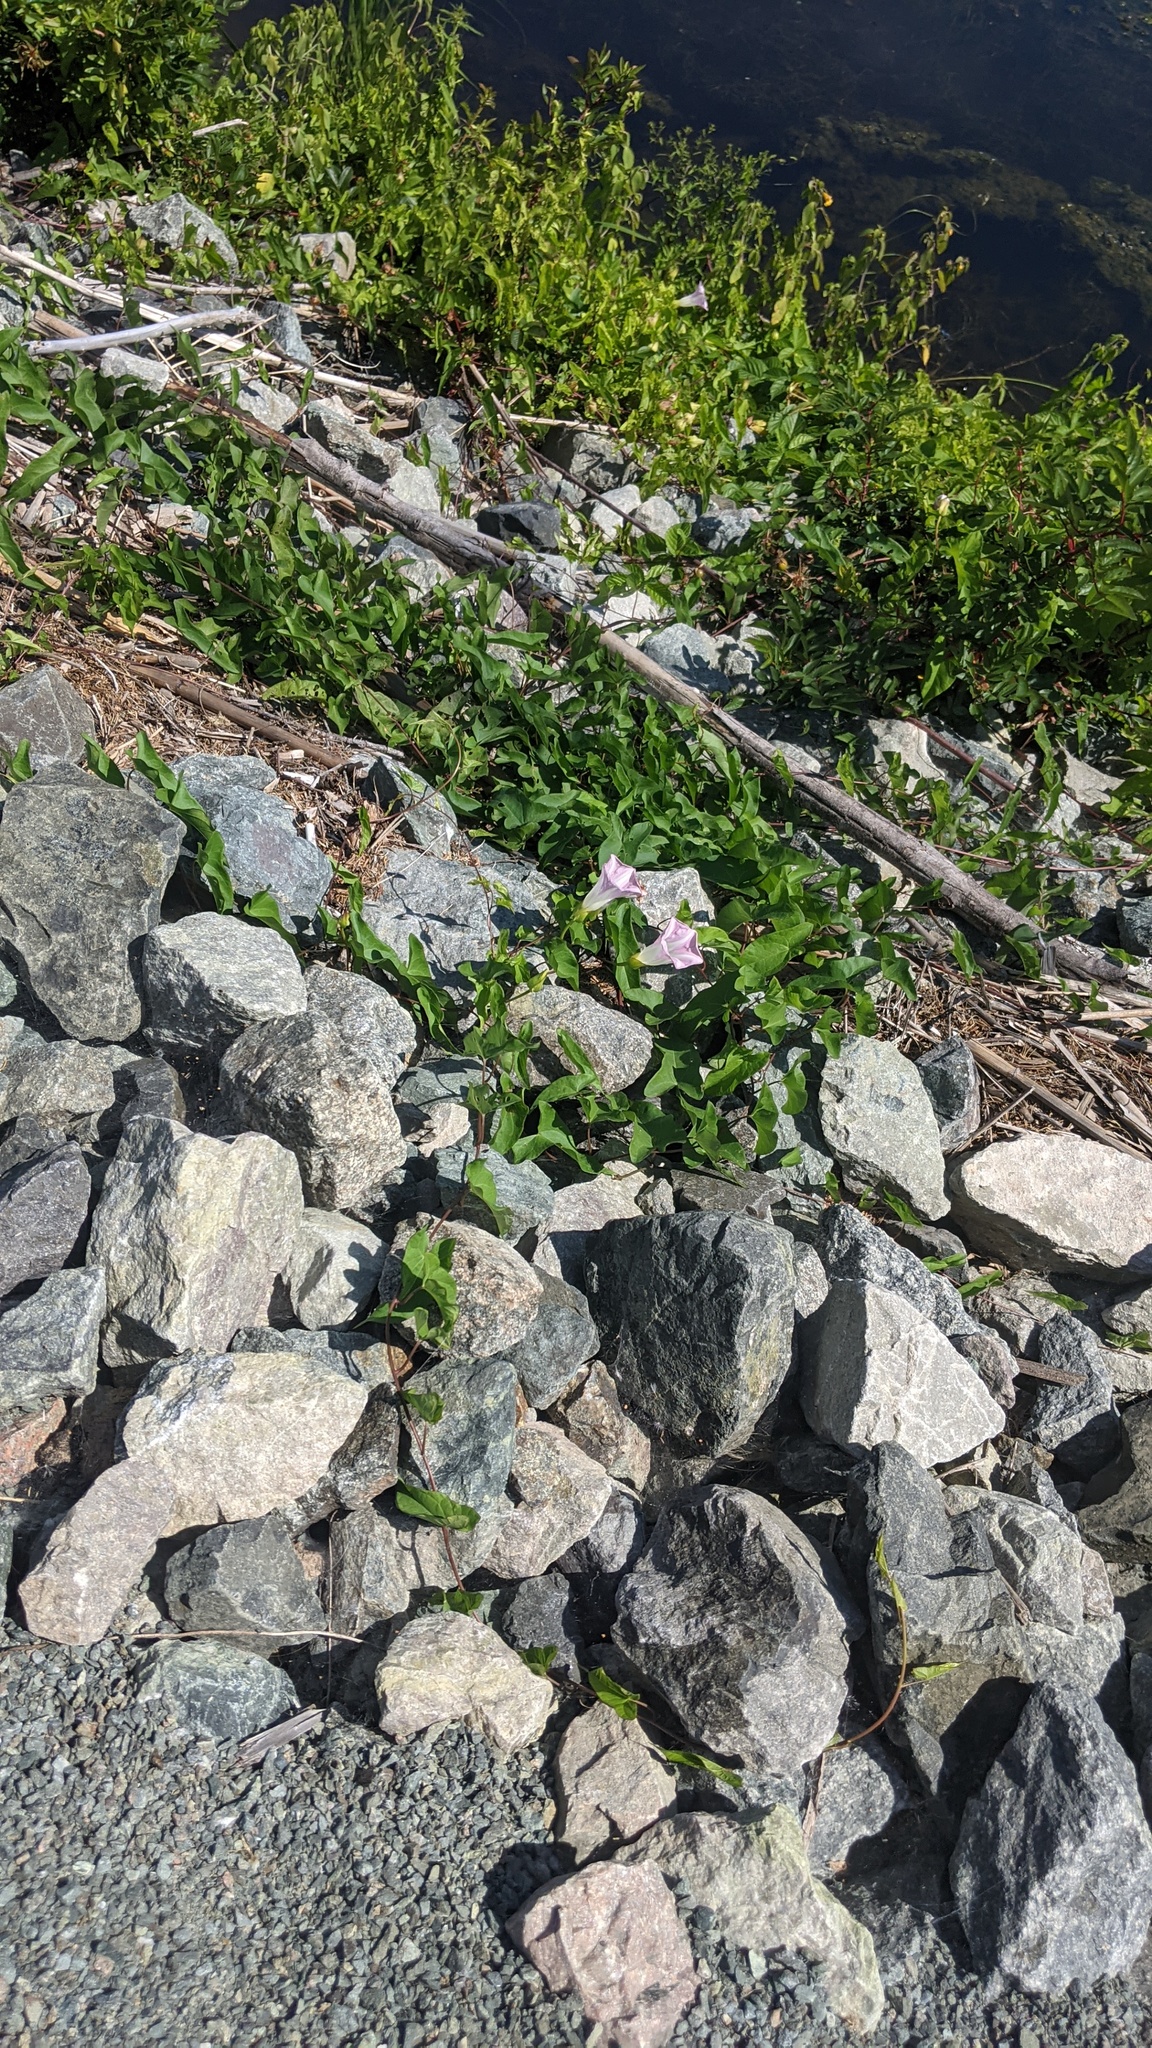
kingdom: Plantae
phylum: Tracheophyta
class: Magnoliopsida
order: Solanales
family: Convolvulaceae
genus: Calystegia
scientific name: Calystegia sepium
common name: Hedge bindweed
